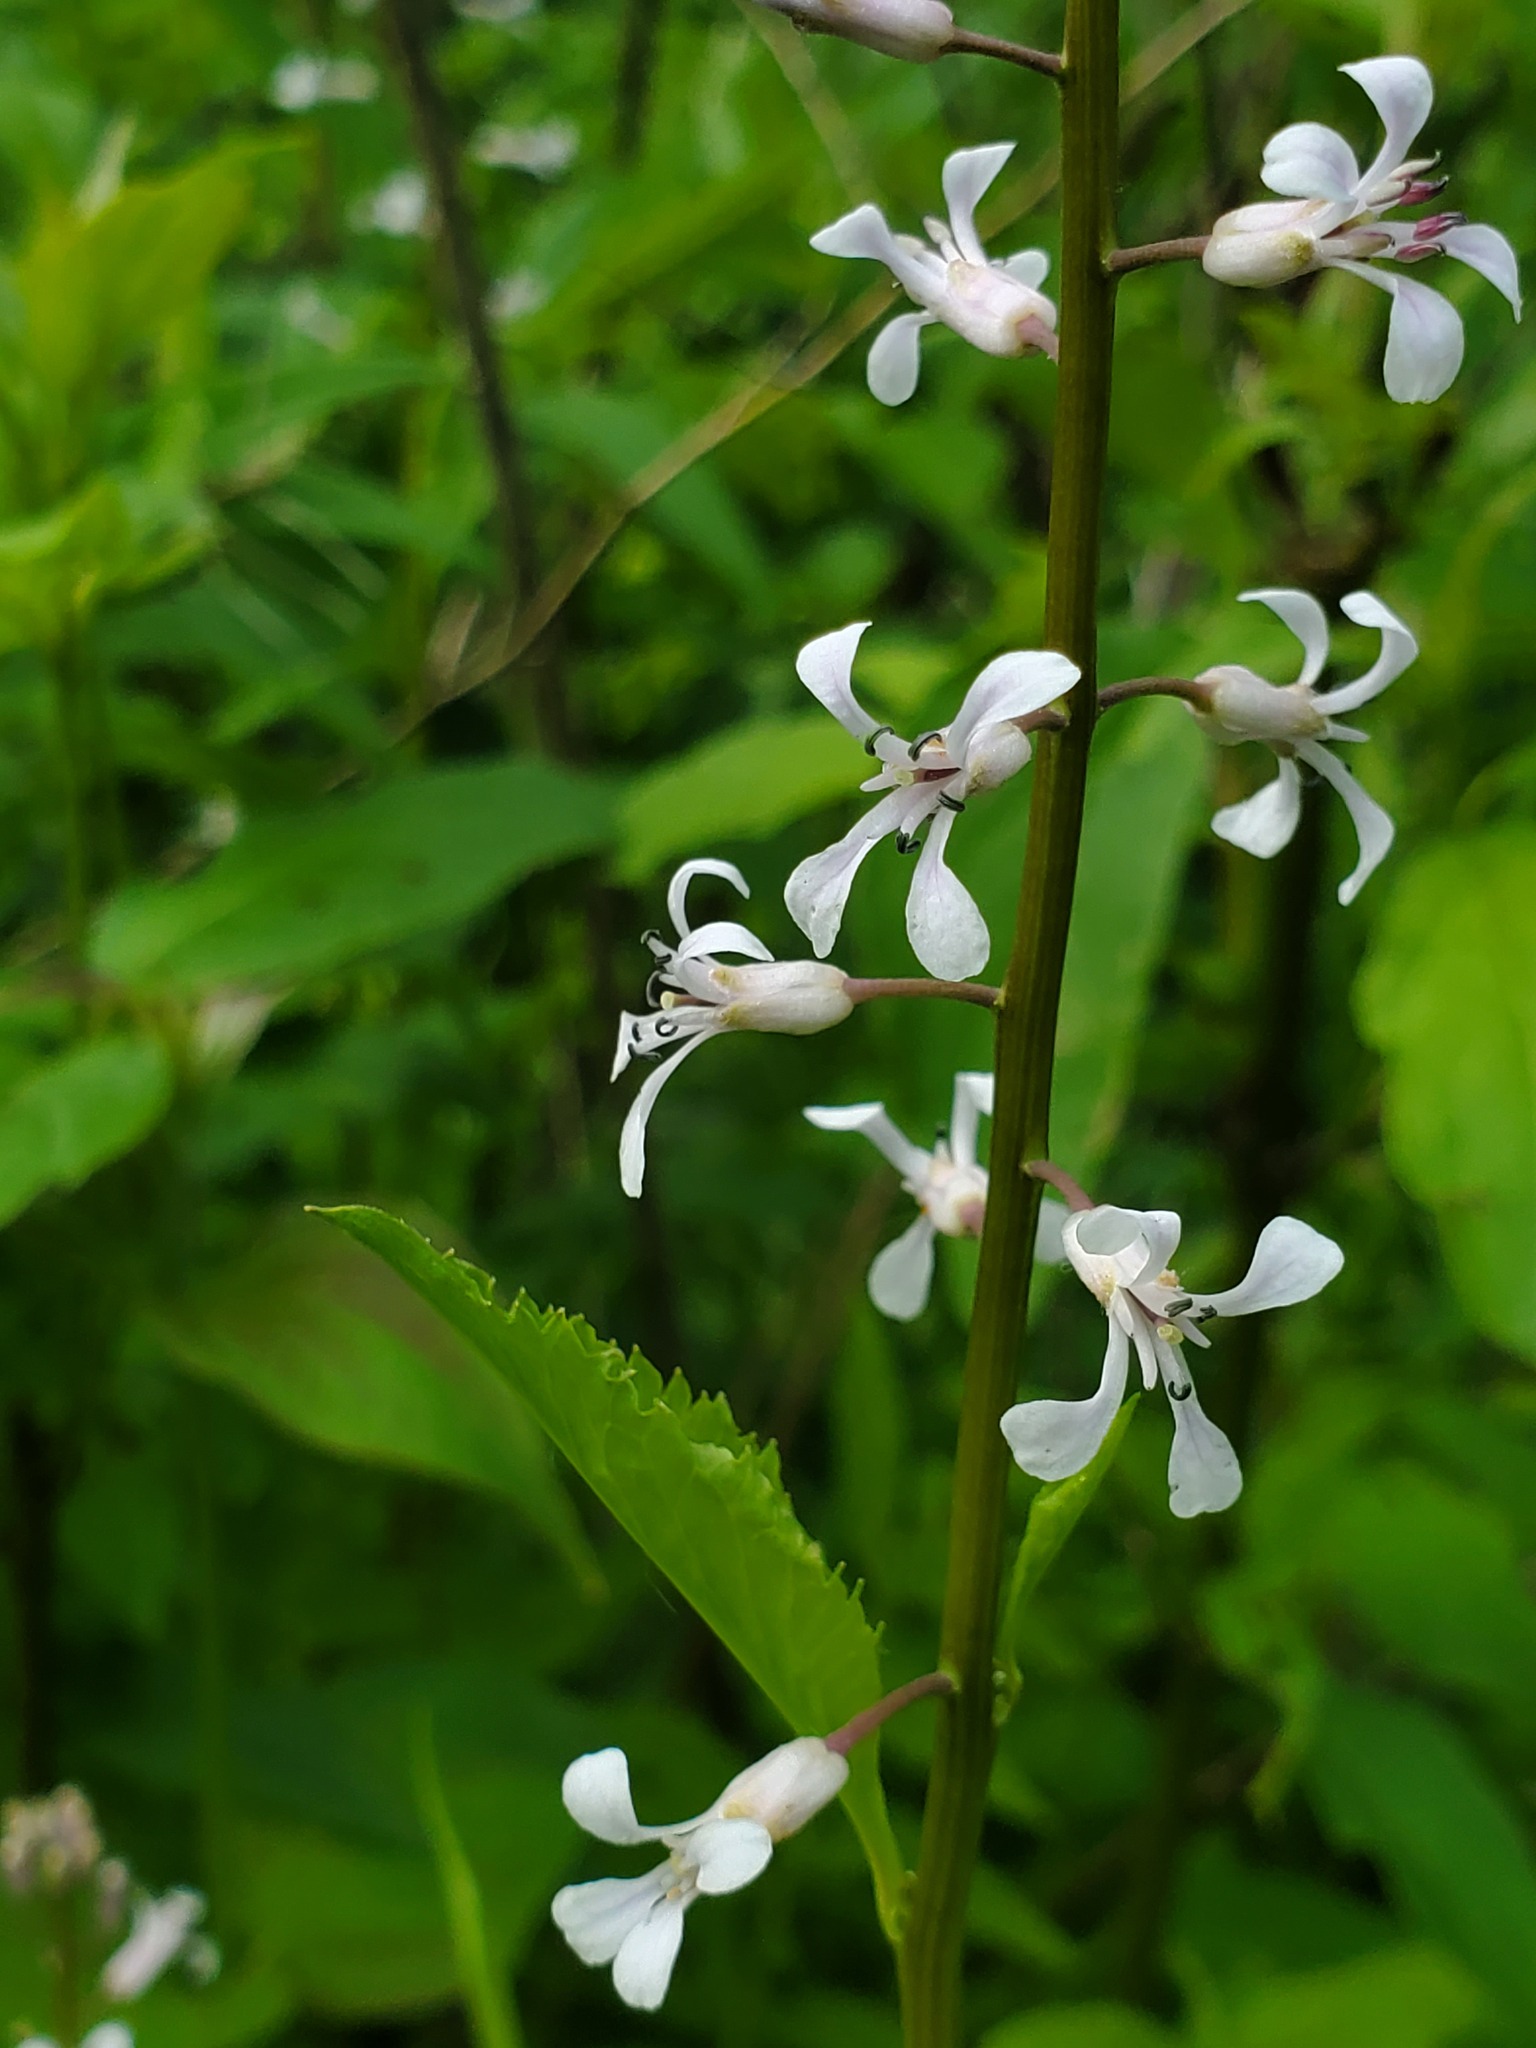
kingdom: Plantae
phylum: Tracheophyta
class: Magnoliopsida
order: Brassicales
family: Brassicaceae
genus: Iodanthus
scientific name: Iodanthus pinnatifidus
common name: Violet rocket
